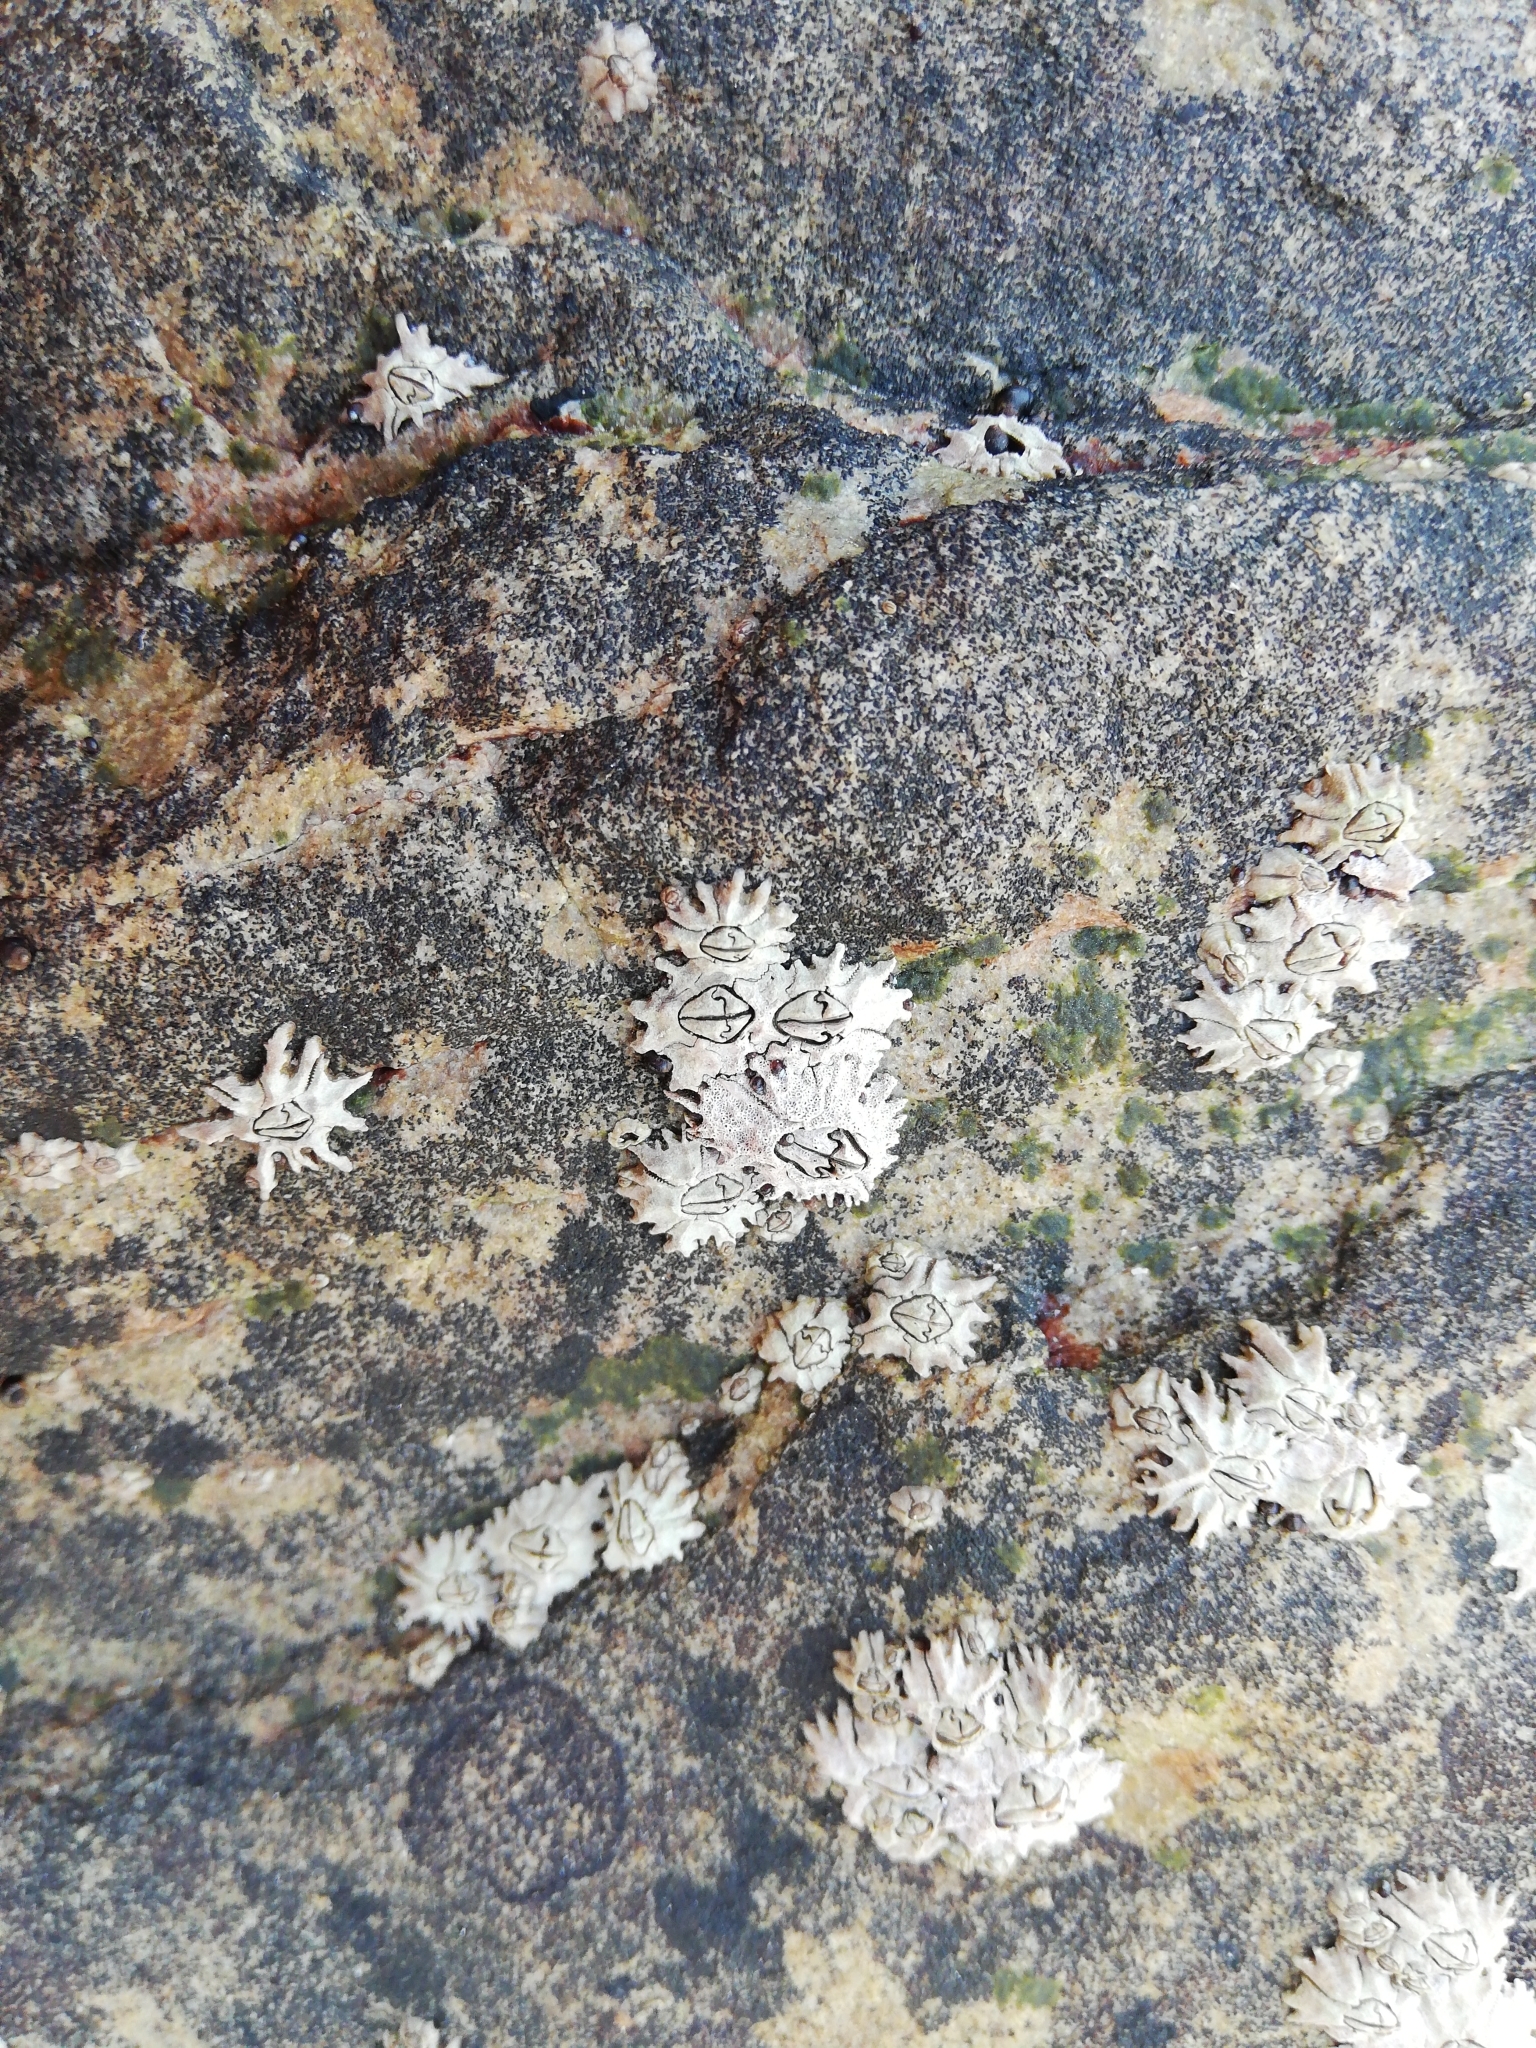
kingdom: Animalia
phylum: Arthropoda
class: Maxillopoda
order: Sessilia
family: Chthamalidae
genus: Chthamalus
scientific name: Chthamalus dentatus
